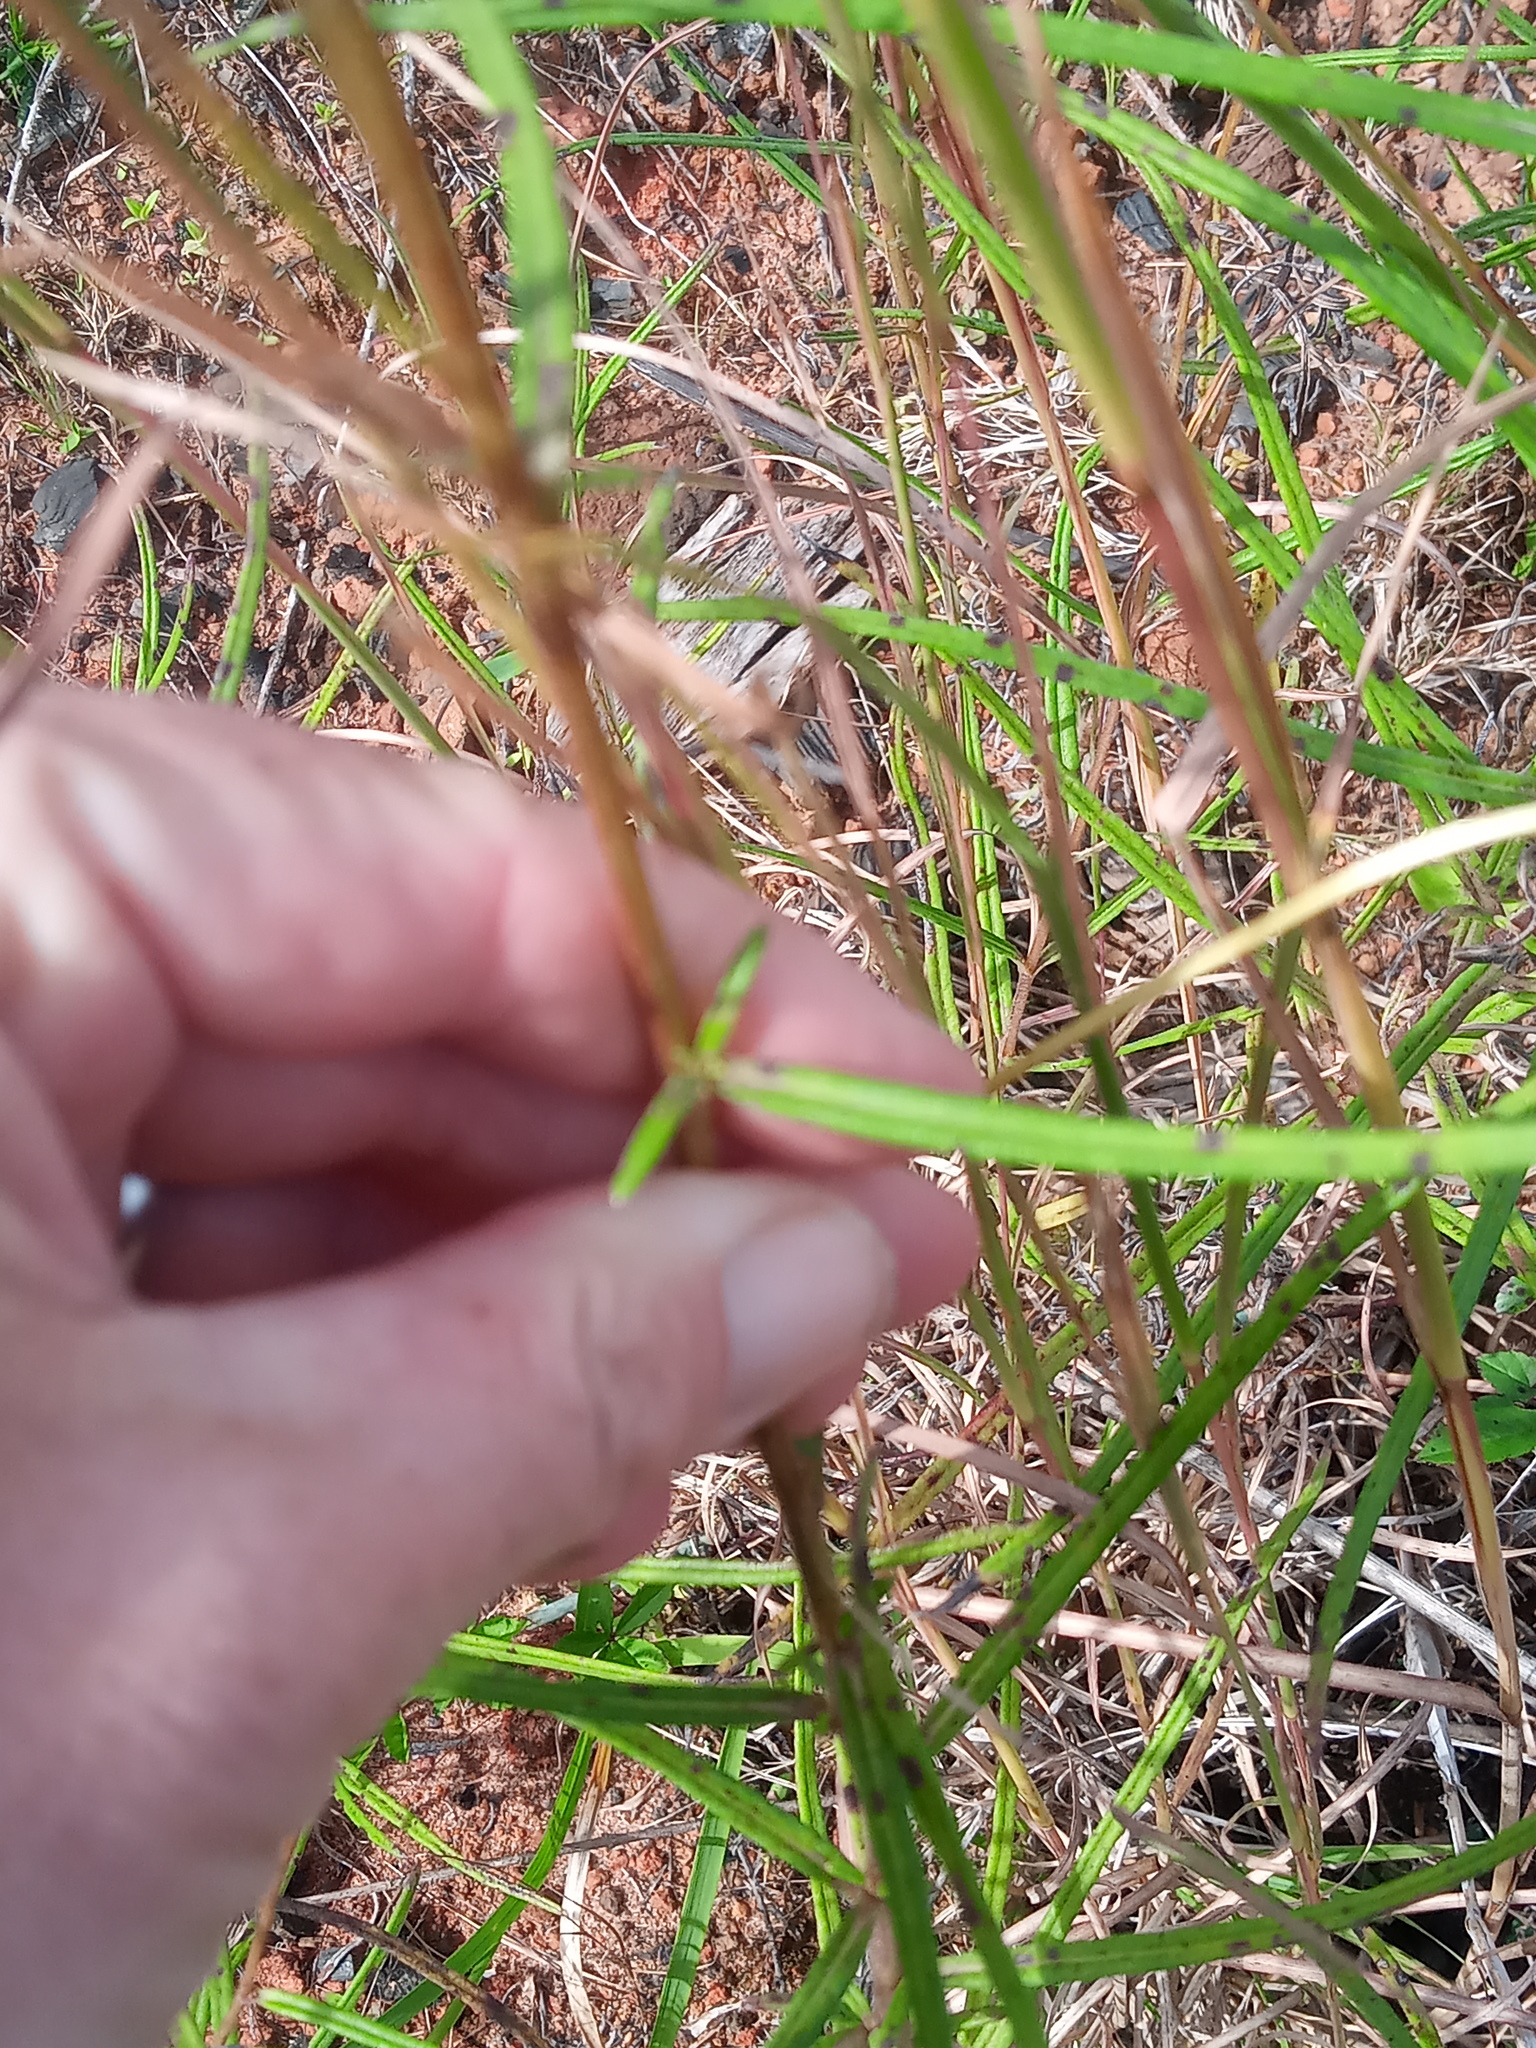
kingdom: Plantae
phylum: Tracheophyta
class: Magnoliopsida
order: Asterales
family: Asteraceae
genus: Helianthus
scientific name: Helianthus angustifolius
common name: Swamp sunflower
